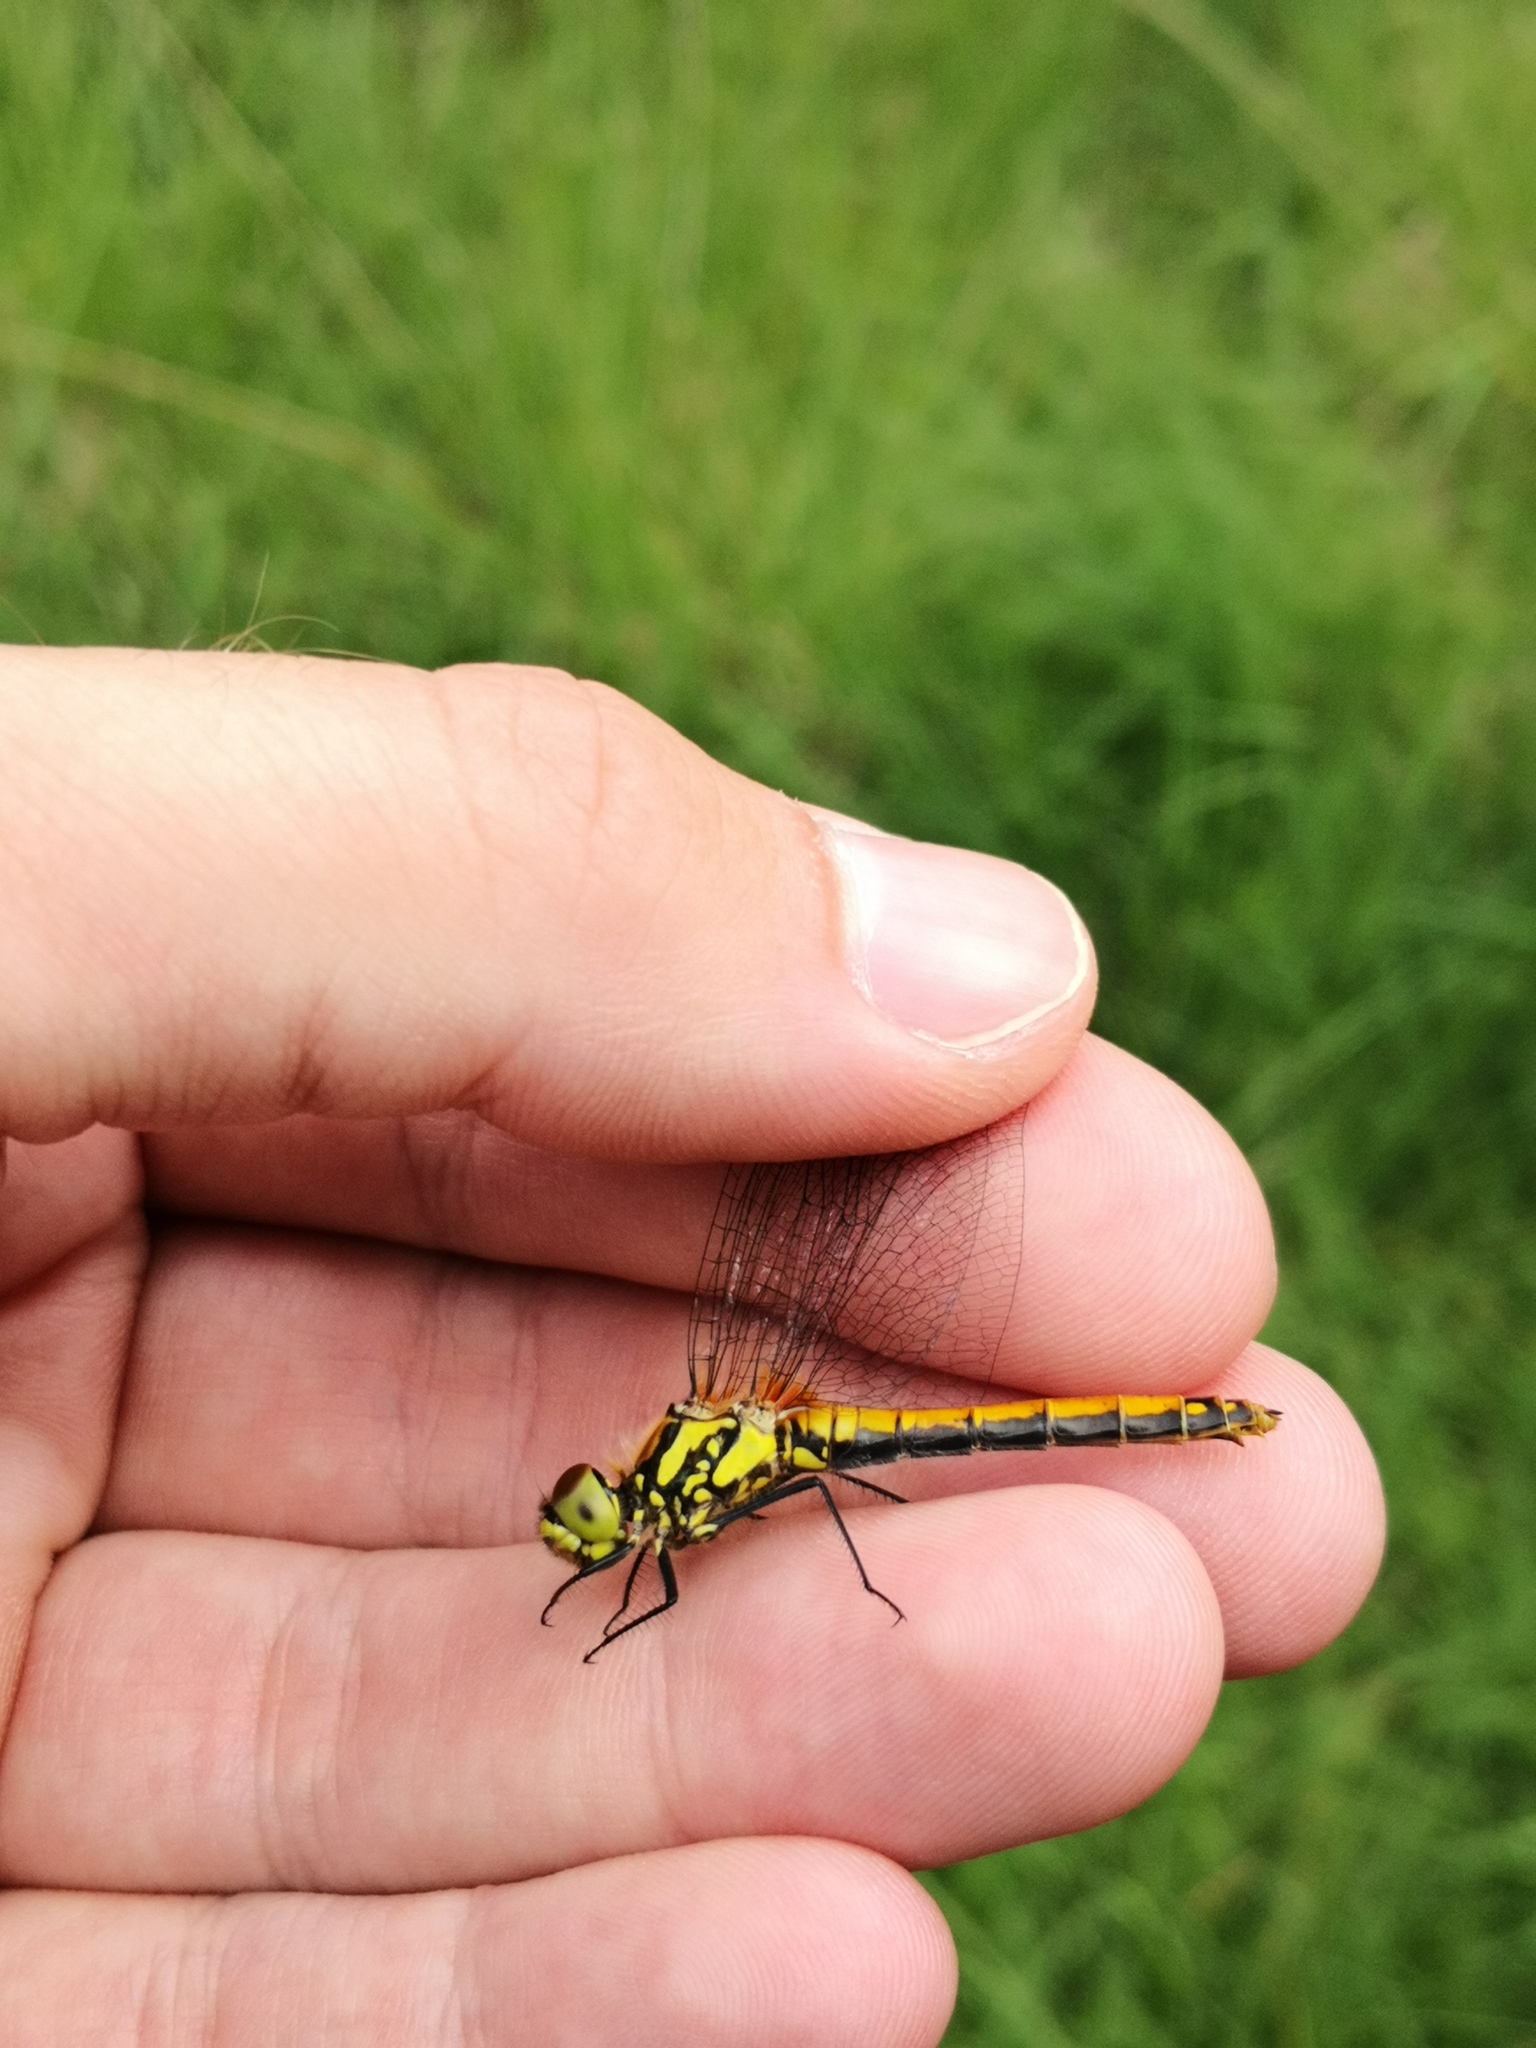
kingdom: Animalia
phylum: Arthropoda
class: Insecta
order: Odonata
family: Libellulidae
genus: Sympetrum
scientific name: Sympetrum danae
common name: Black darter
